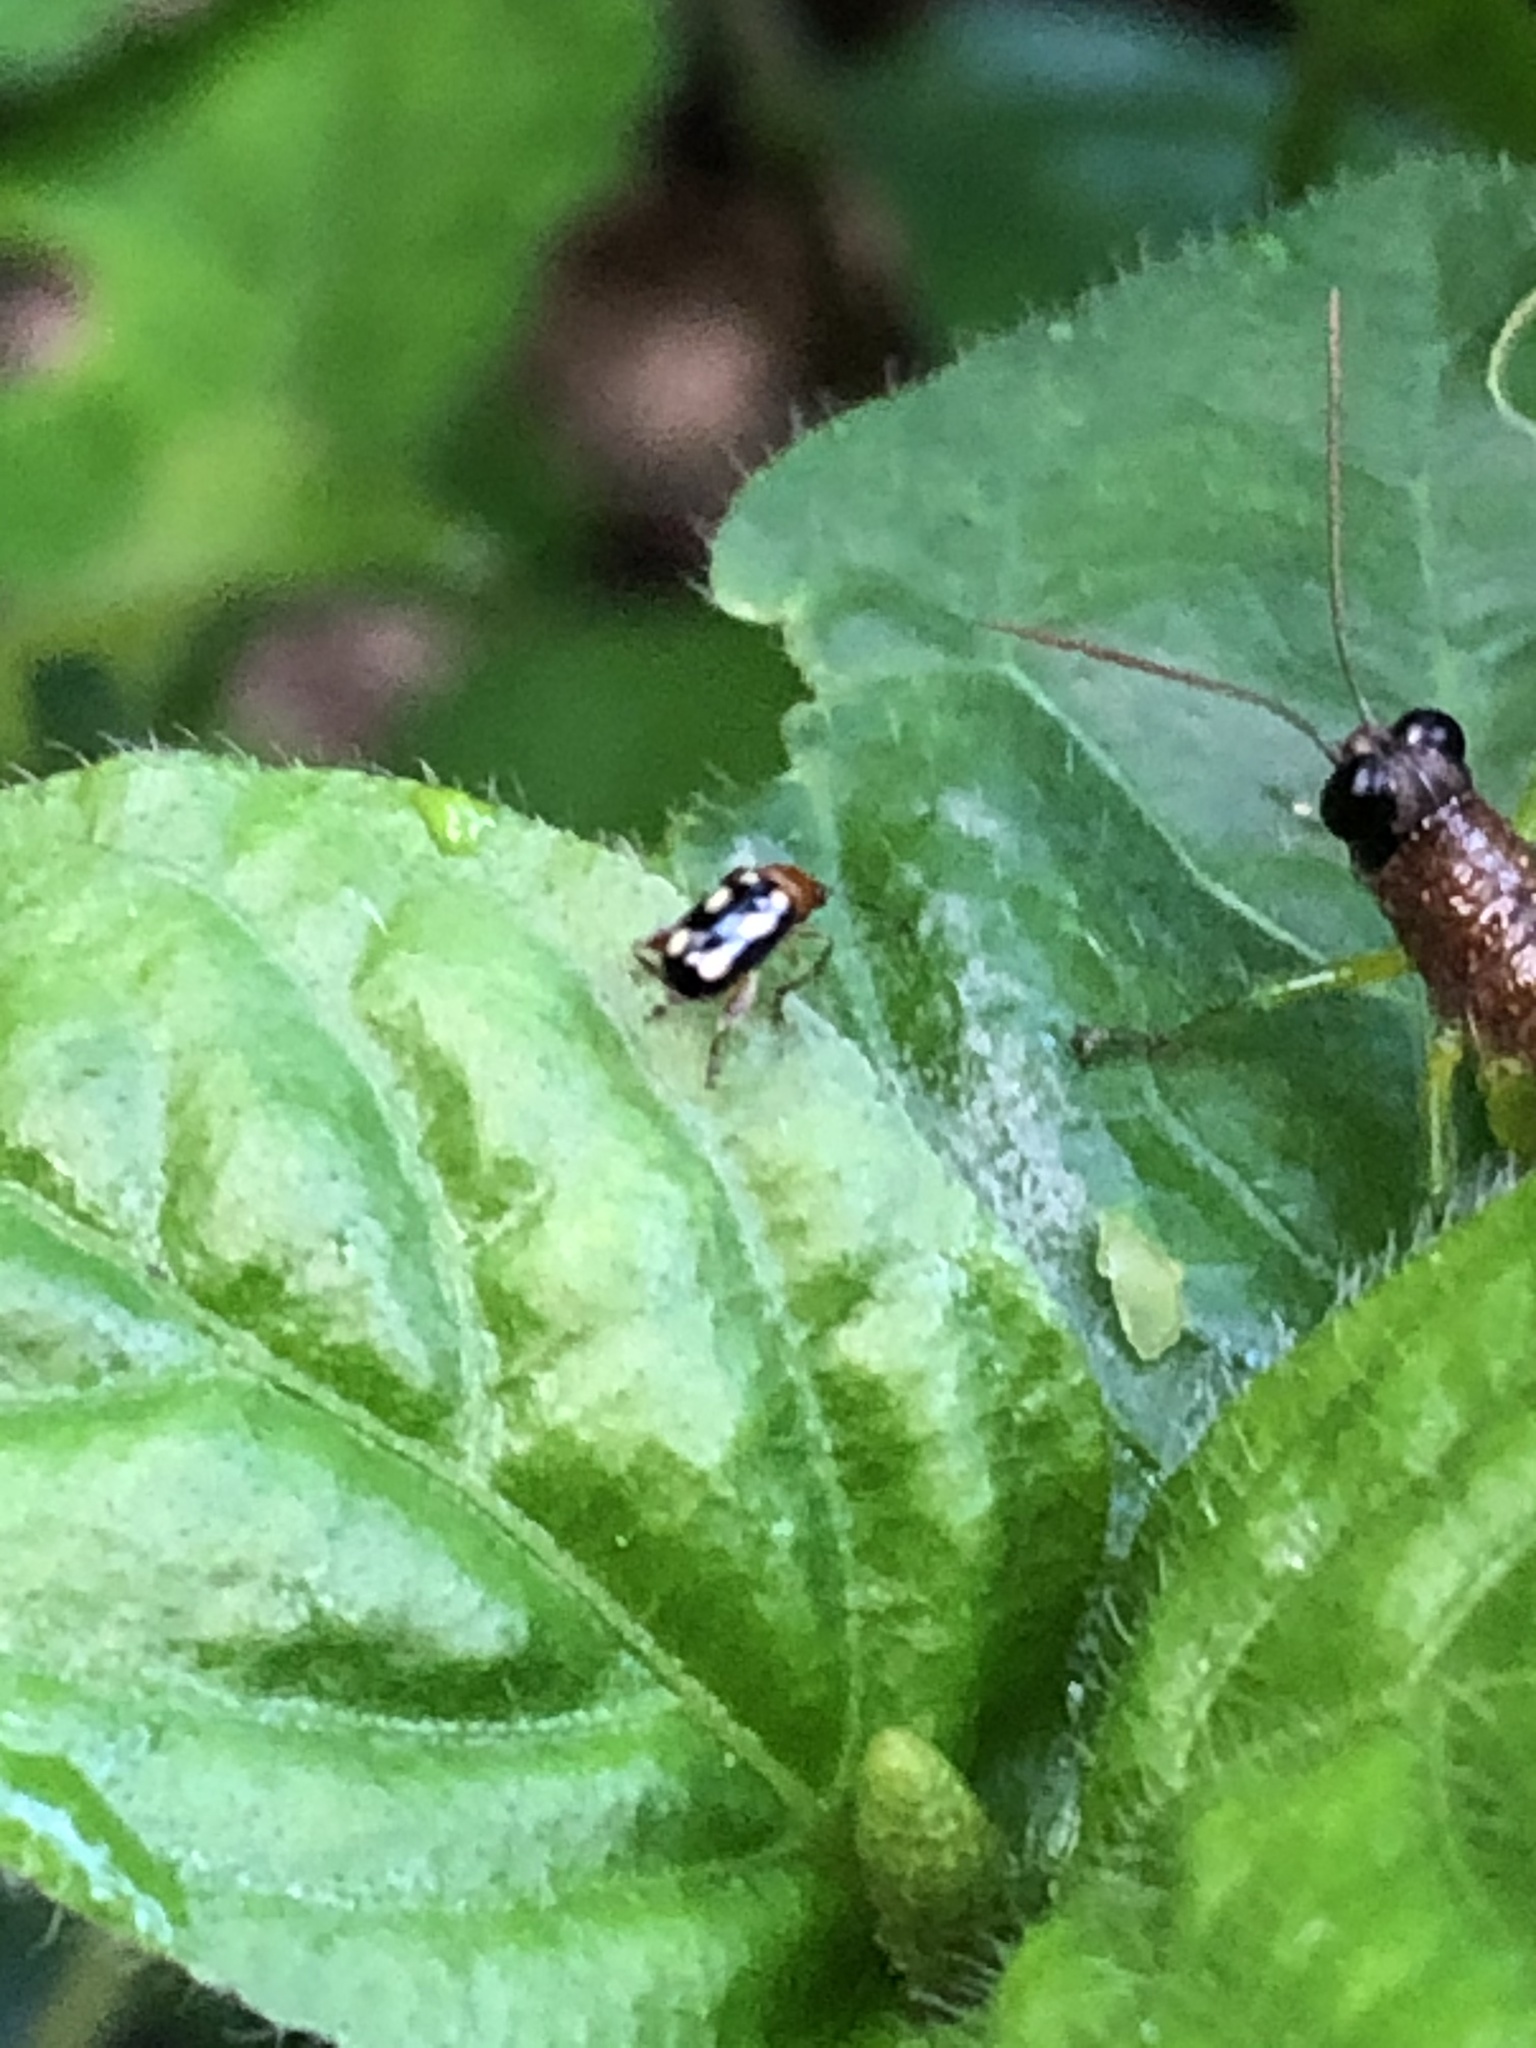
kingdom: Animalia
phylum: Arthropoda
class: Insecta
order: Coleoptera
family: Chrysomelidae
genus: Systena
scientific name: Systena
